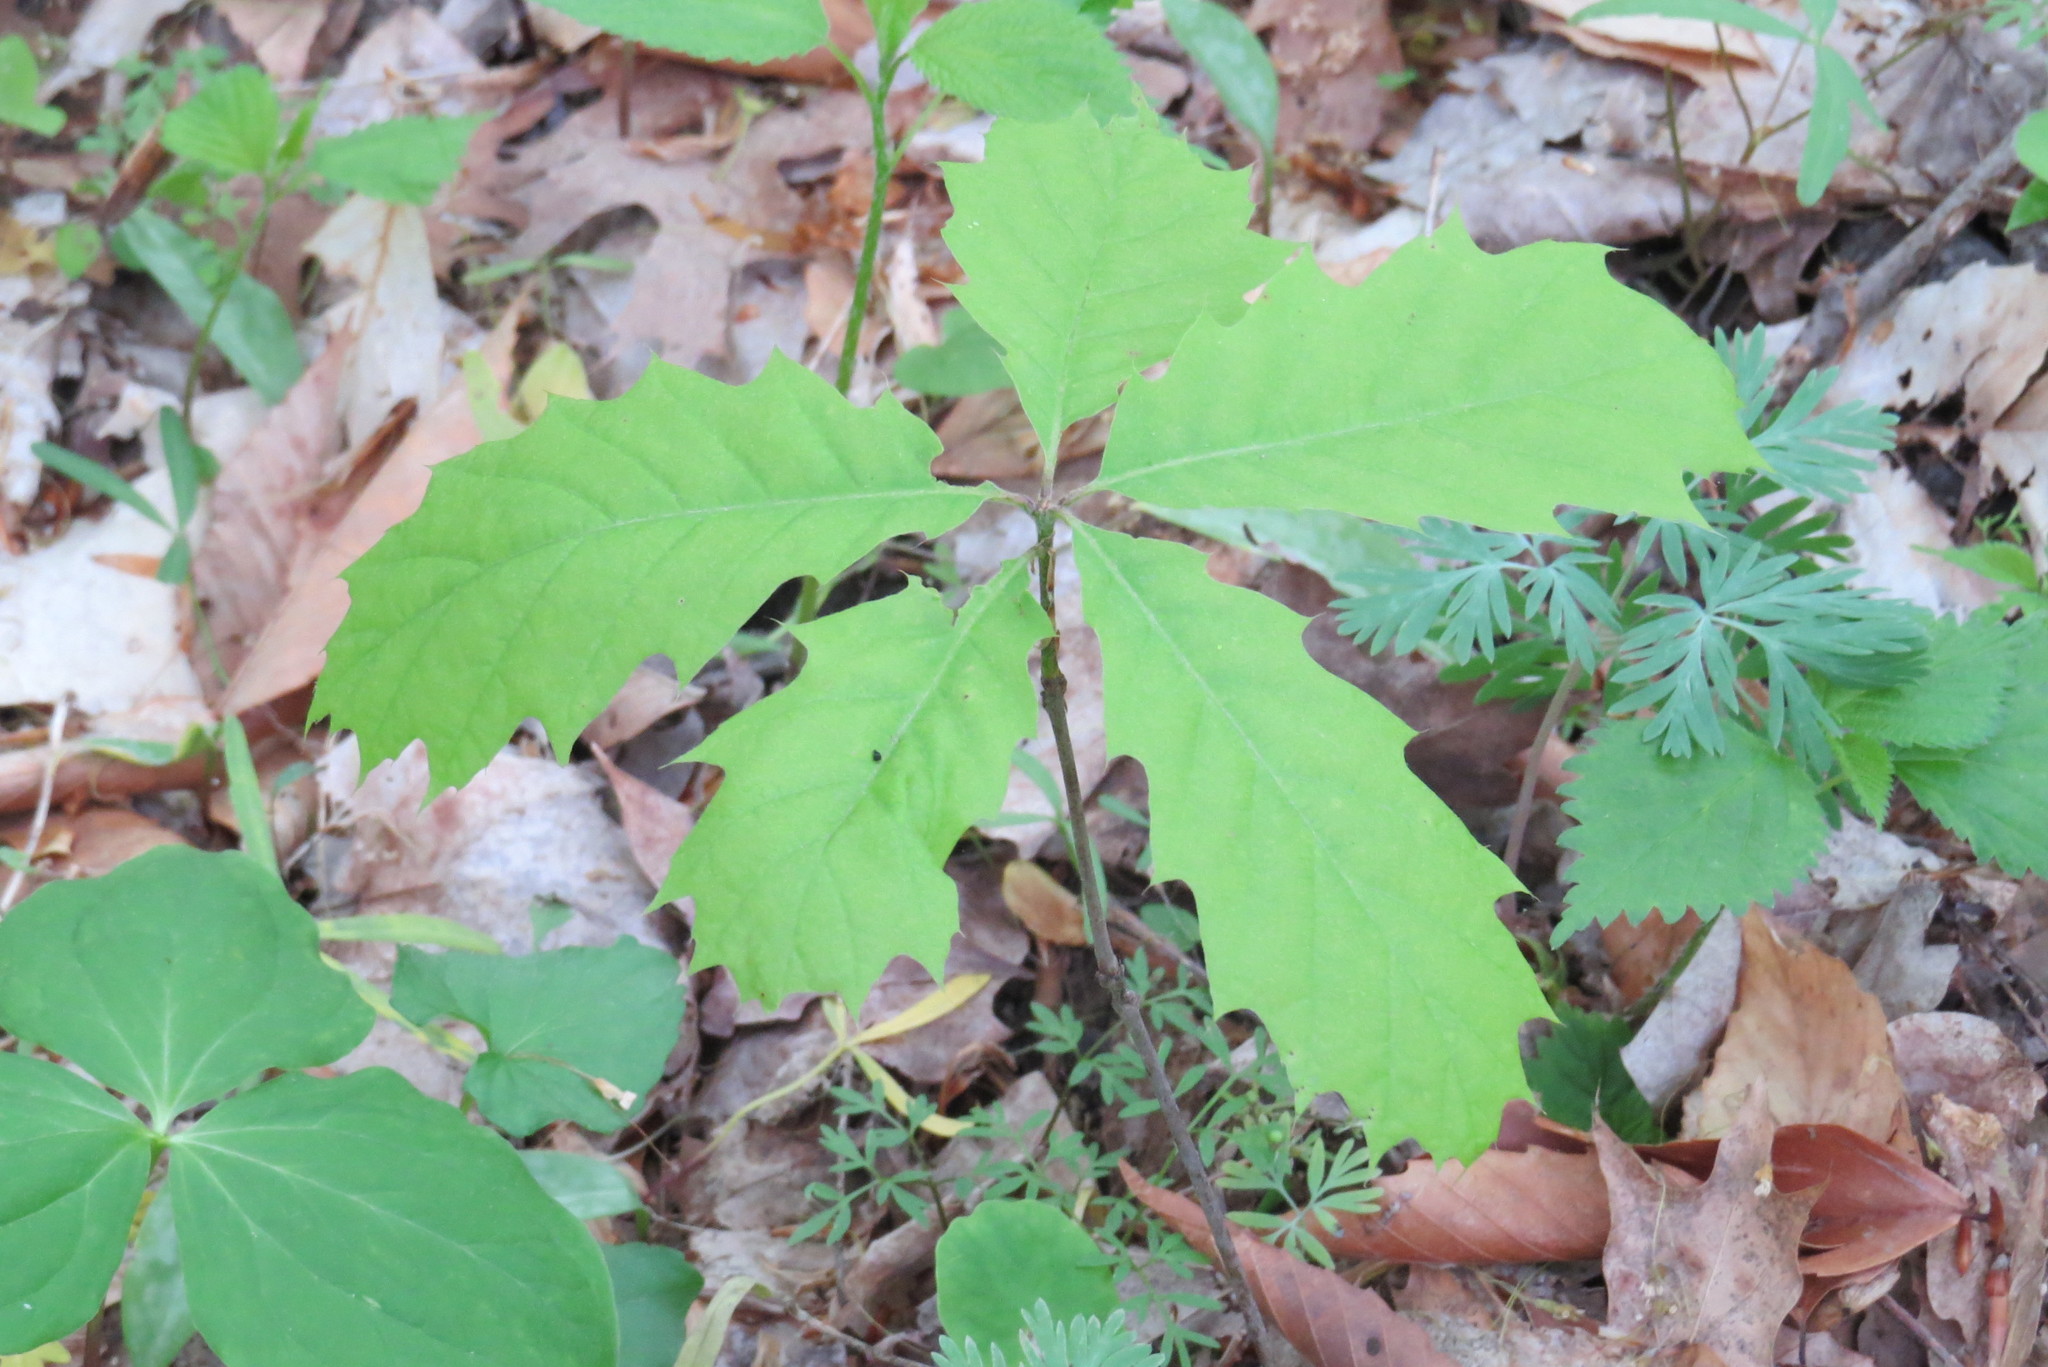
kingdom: Plantae
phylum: Tracheophyta
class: Magnoliopsida
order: Fagales
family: Fagaceae
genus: Quercus
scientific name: Quercus rubra
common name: Red oak
